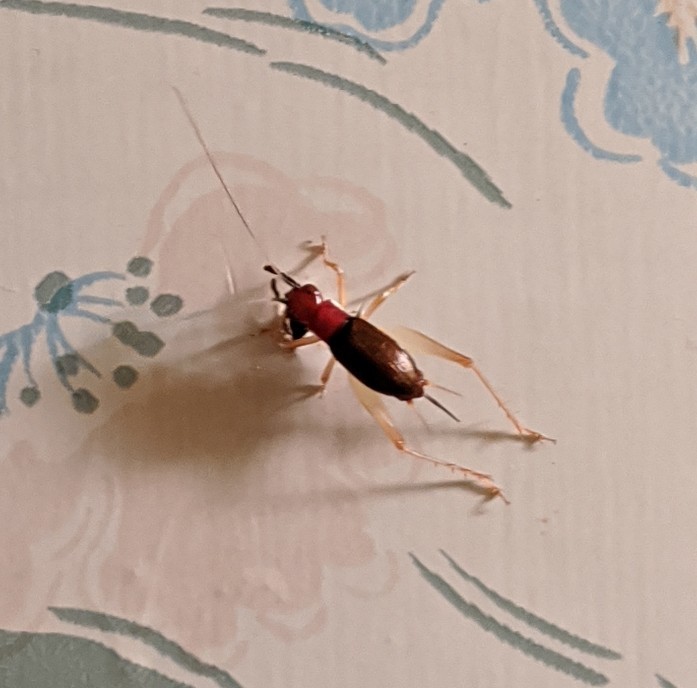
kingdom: Animalia
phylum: Arthropoda
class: Insecta
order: Orthoptera
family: Trigonidiidae
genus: Phyllopalpus
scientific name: Phyllopalpus pulchellus
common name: Handsome trig
